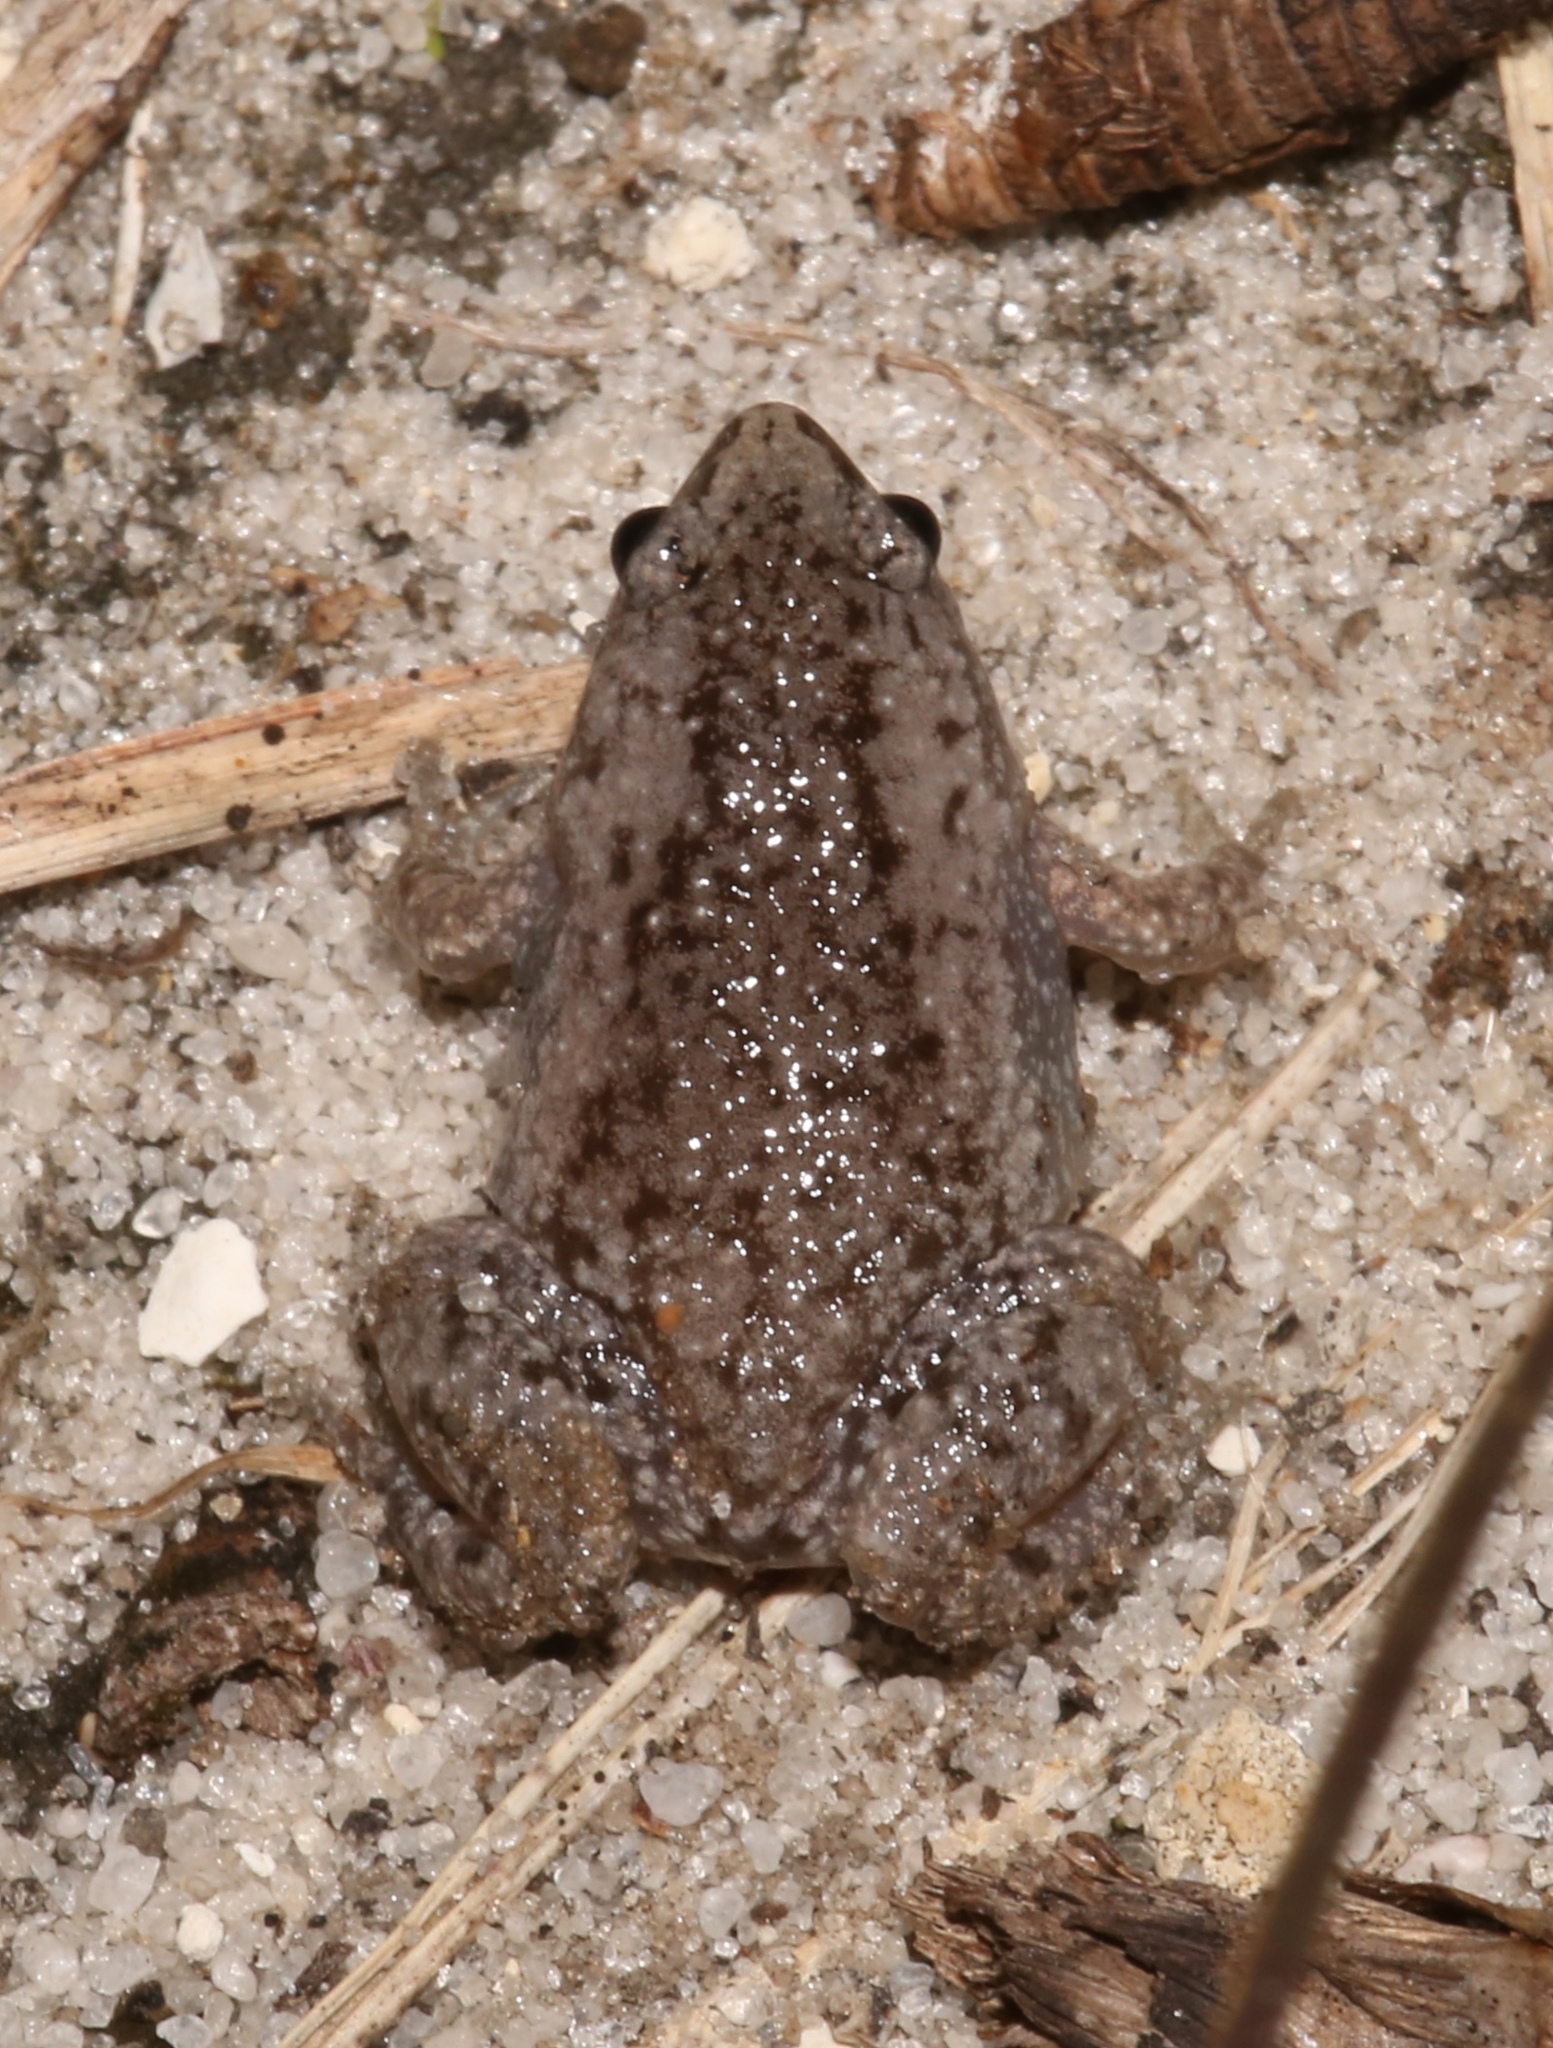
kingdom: Animalia
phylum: Chordata
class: Amphibia
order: Anura
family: Microhylidae
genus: Gastrophryne
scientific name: Gastrophryne carolinensis
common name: Eastern narrowmouth toad
